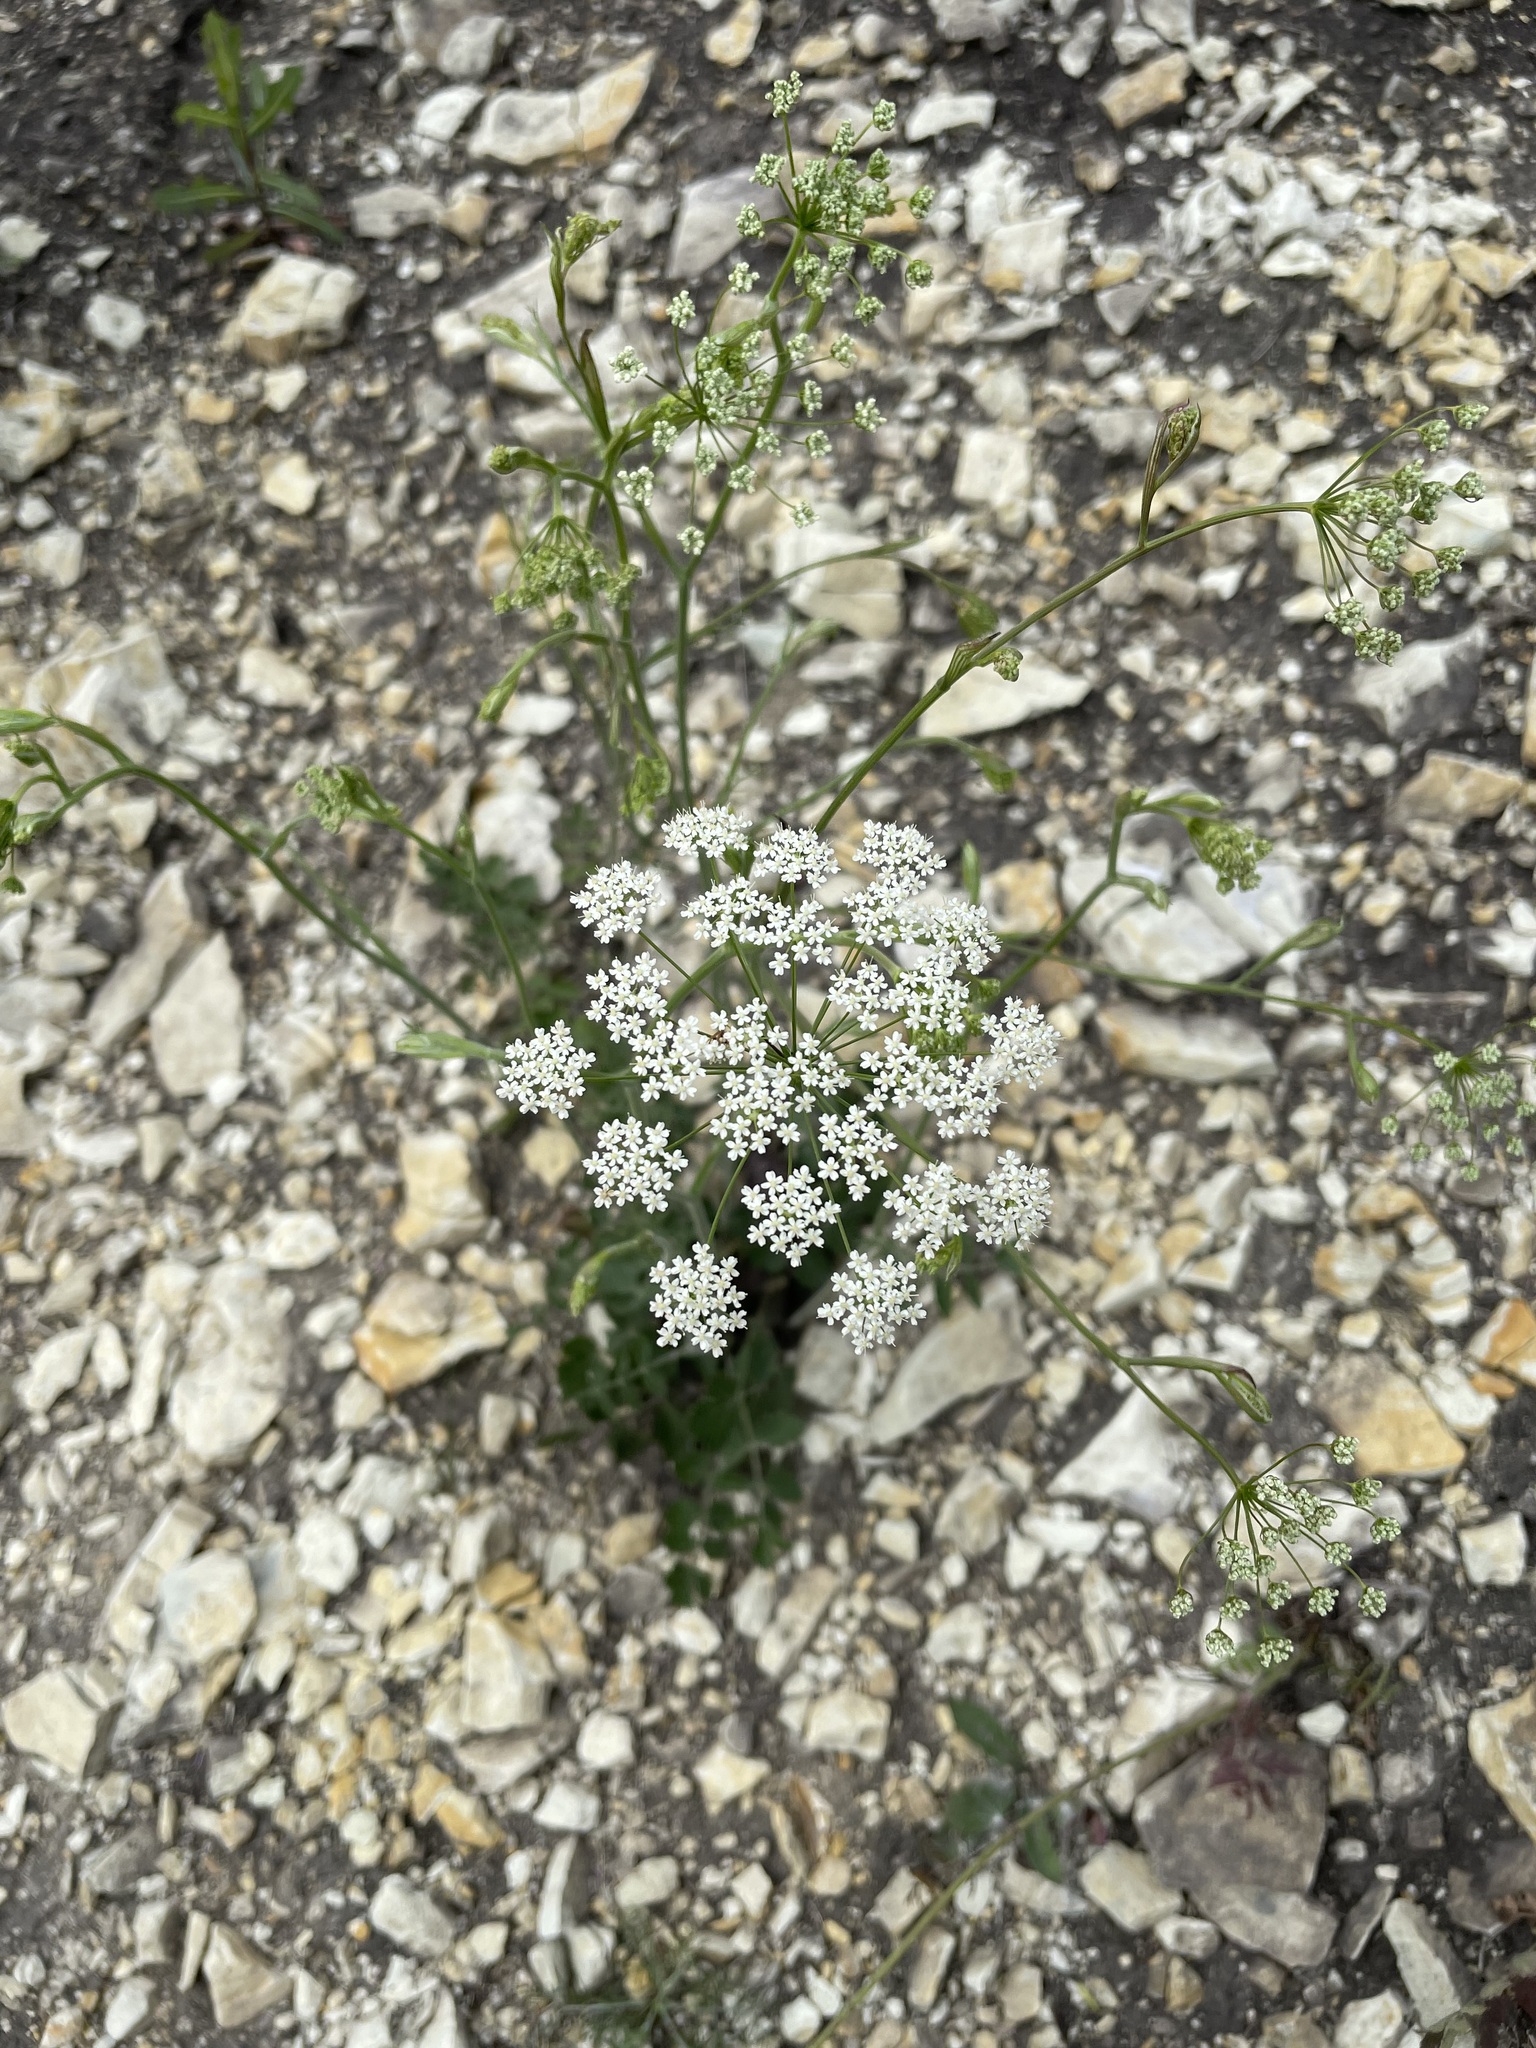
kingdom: Plantae
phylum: Tracheophyta
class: Magnoliopsida
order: Apiales
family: Apiaceae
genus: Pimpinella
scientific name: Pimpinella saxifraga
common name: Burnet-saxifrage
